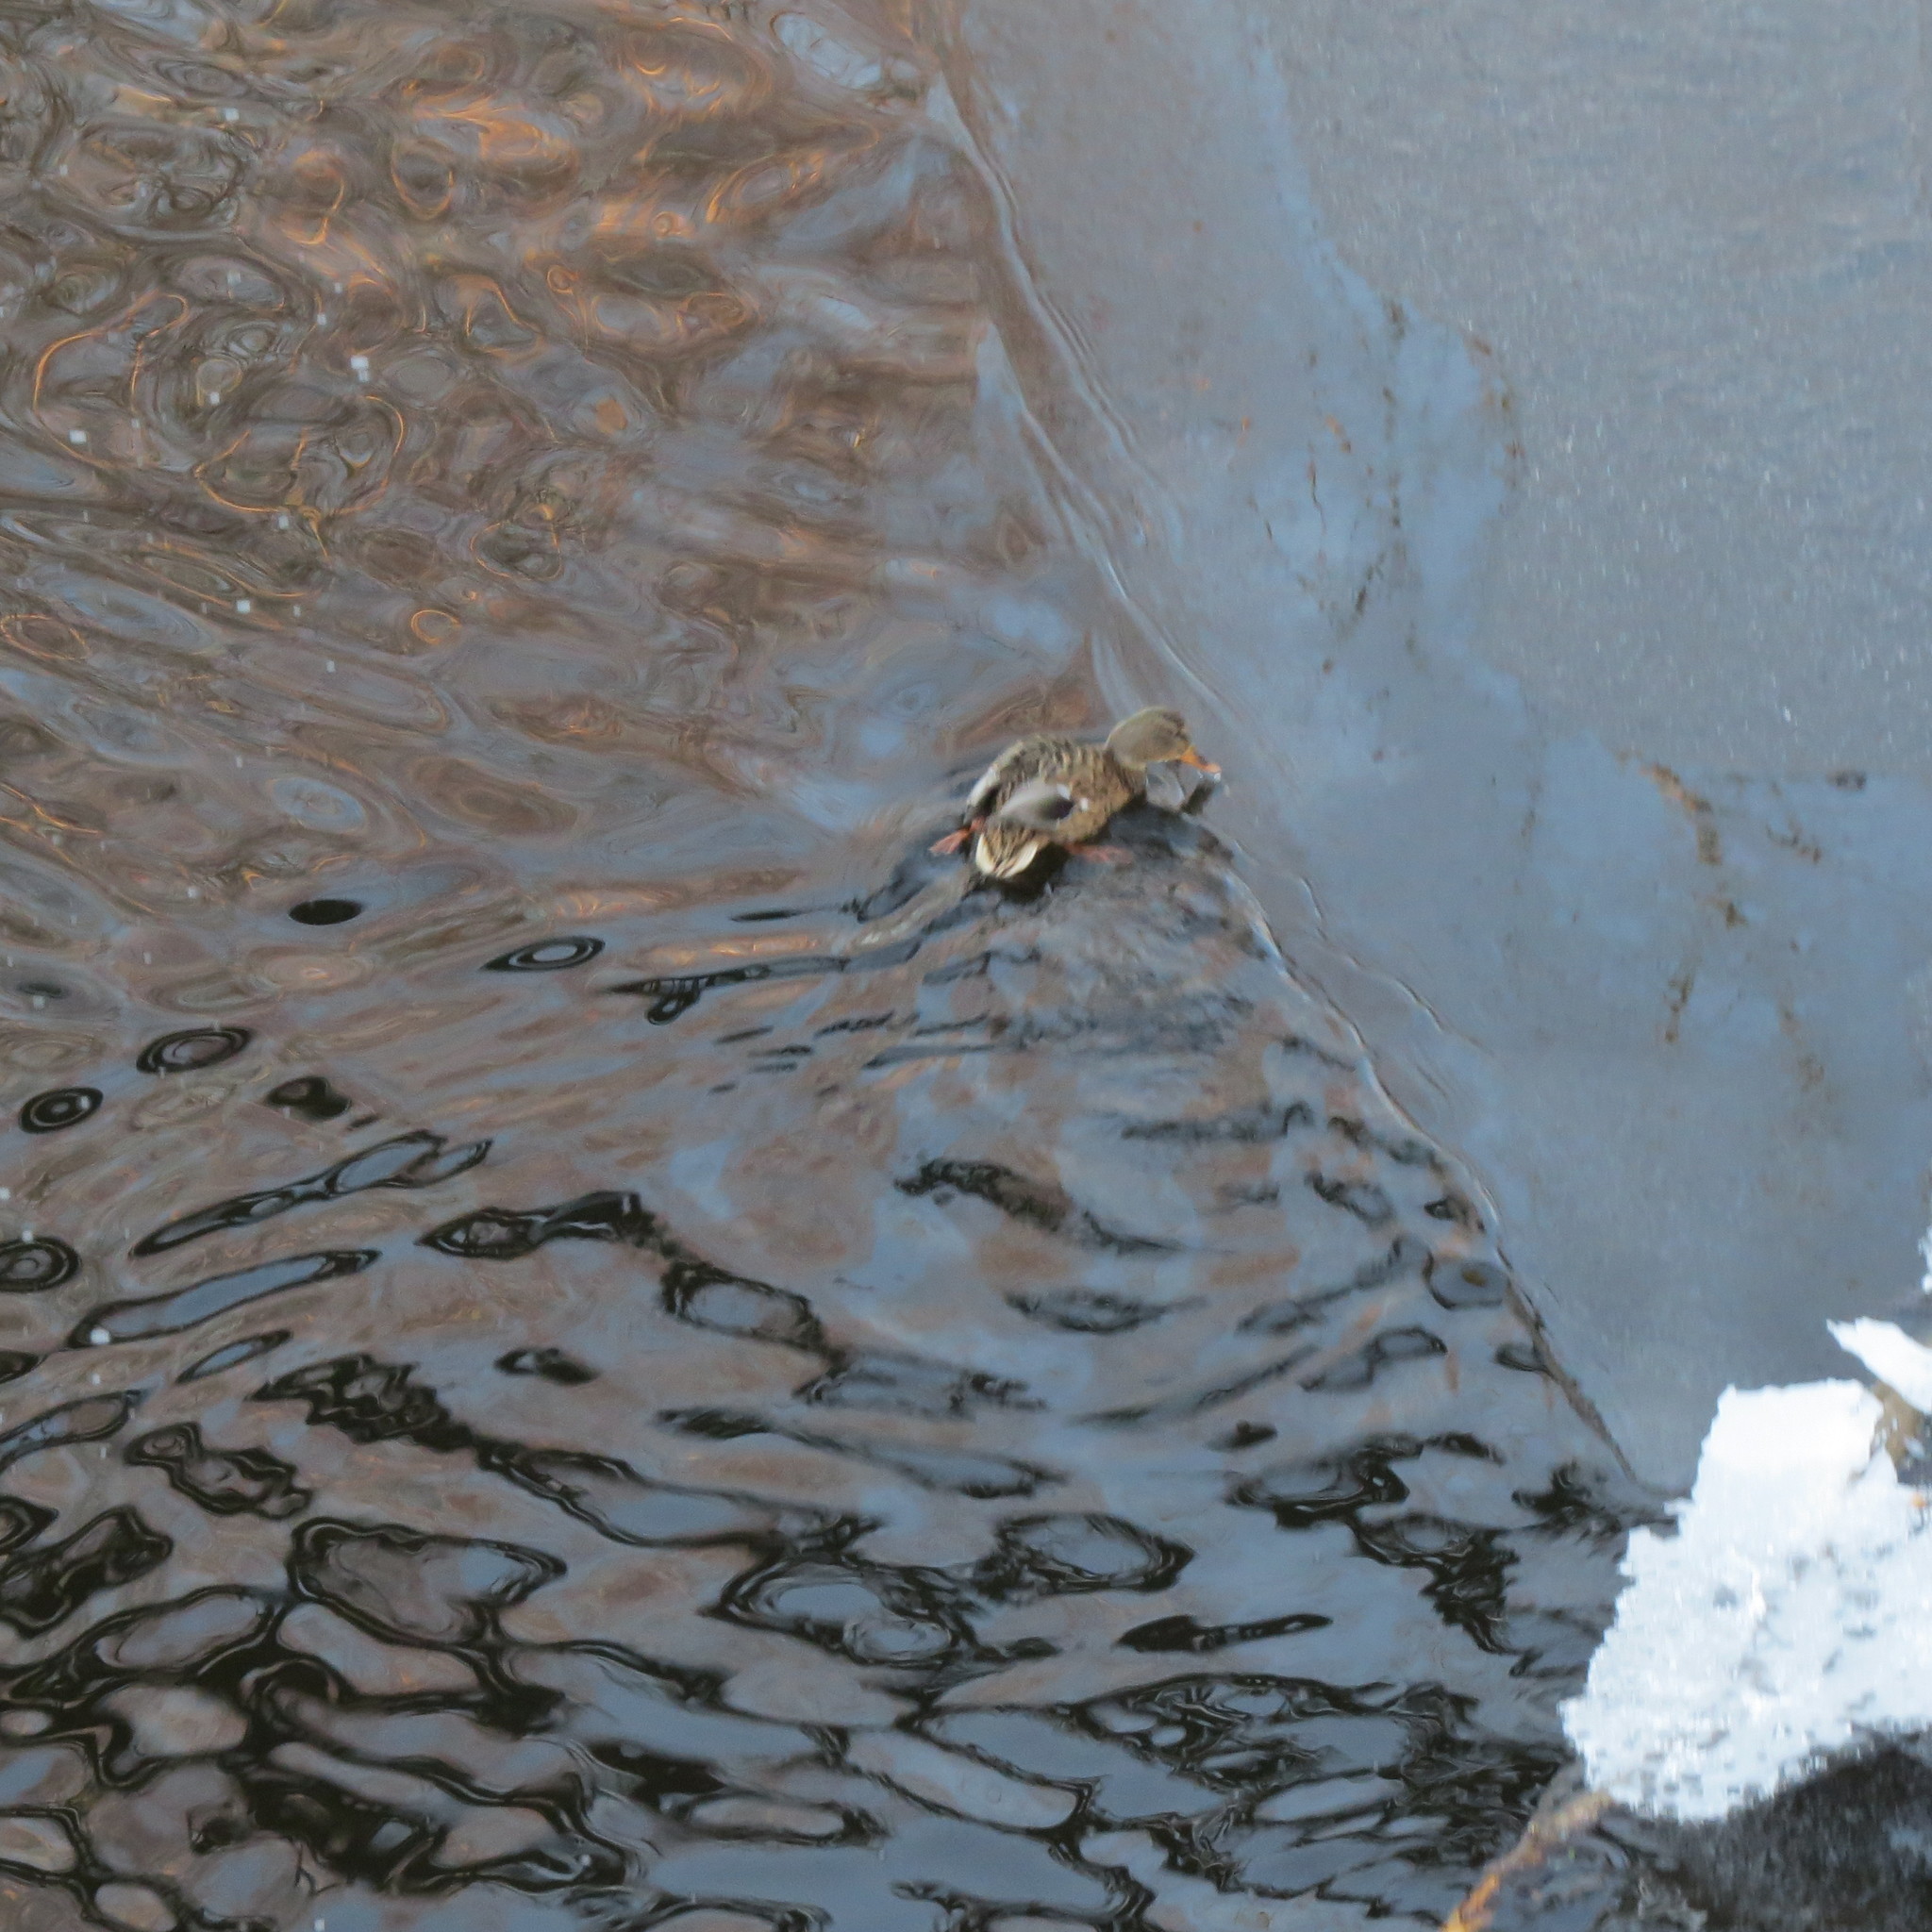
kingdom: Animalia
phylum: Chordata
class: Aves
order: Anseriformes
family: Anatidae
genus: Anas
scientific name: Anas platyrhynchos
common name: Mallard
